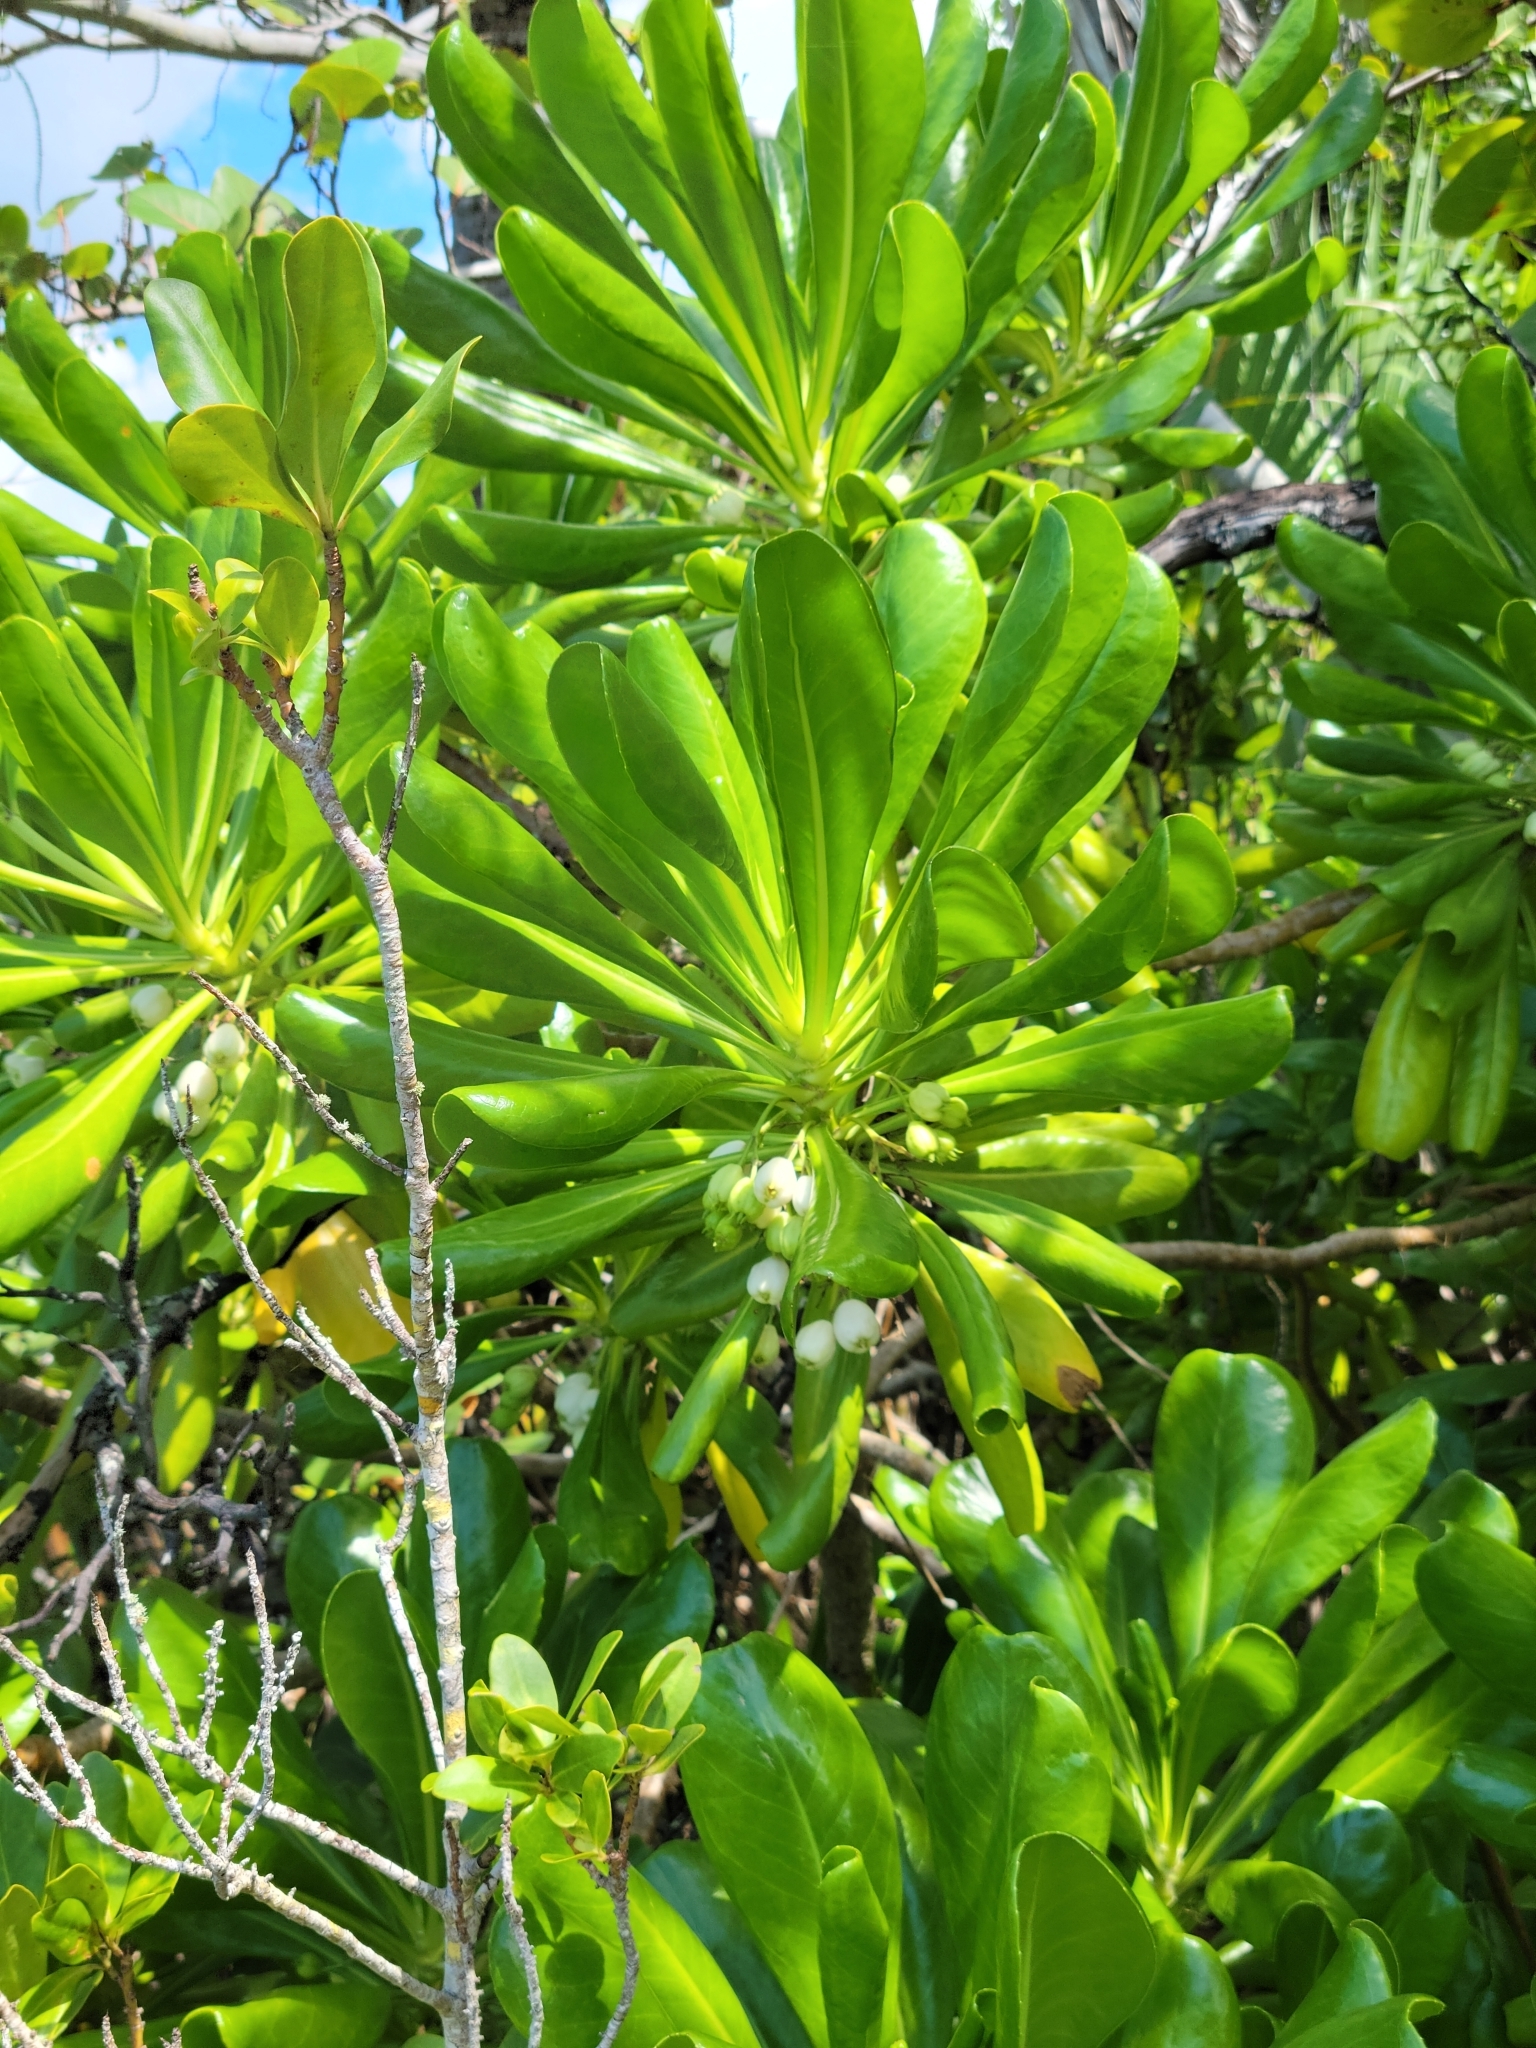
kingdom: Plantae
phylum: Tracheophyta
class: Magnoliopsida
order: Asterales
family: Goodeniaceae
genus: Scaevola
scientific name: Scaevola taccada
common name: Sea lettucetree
